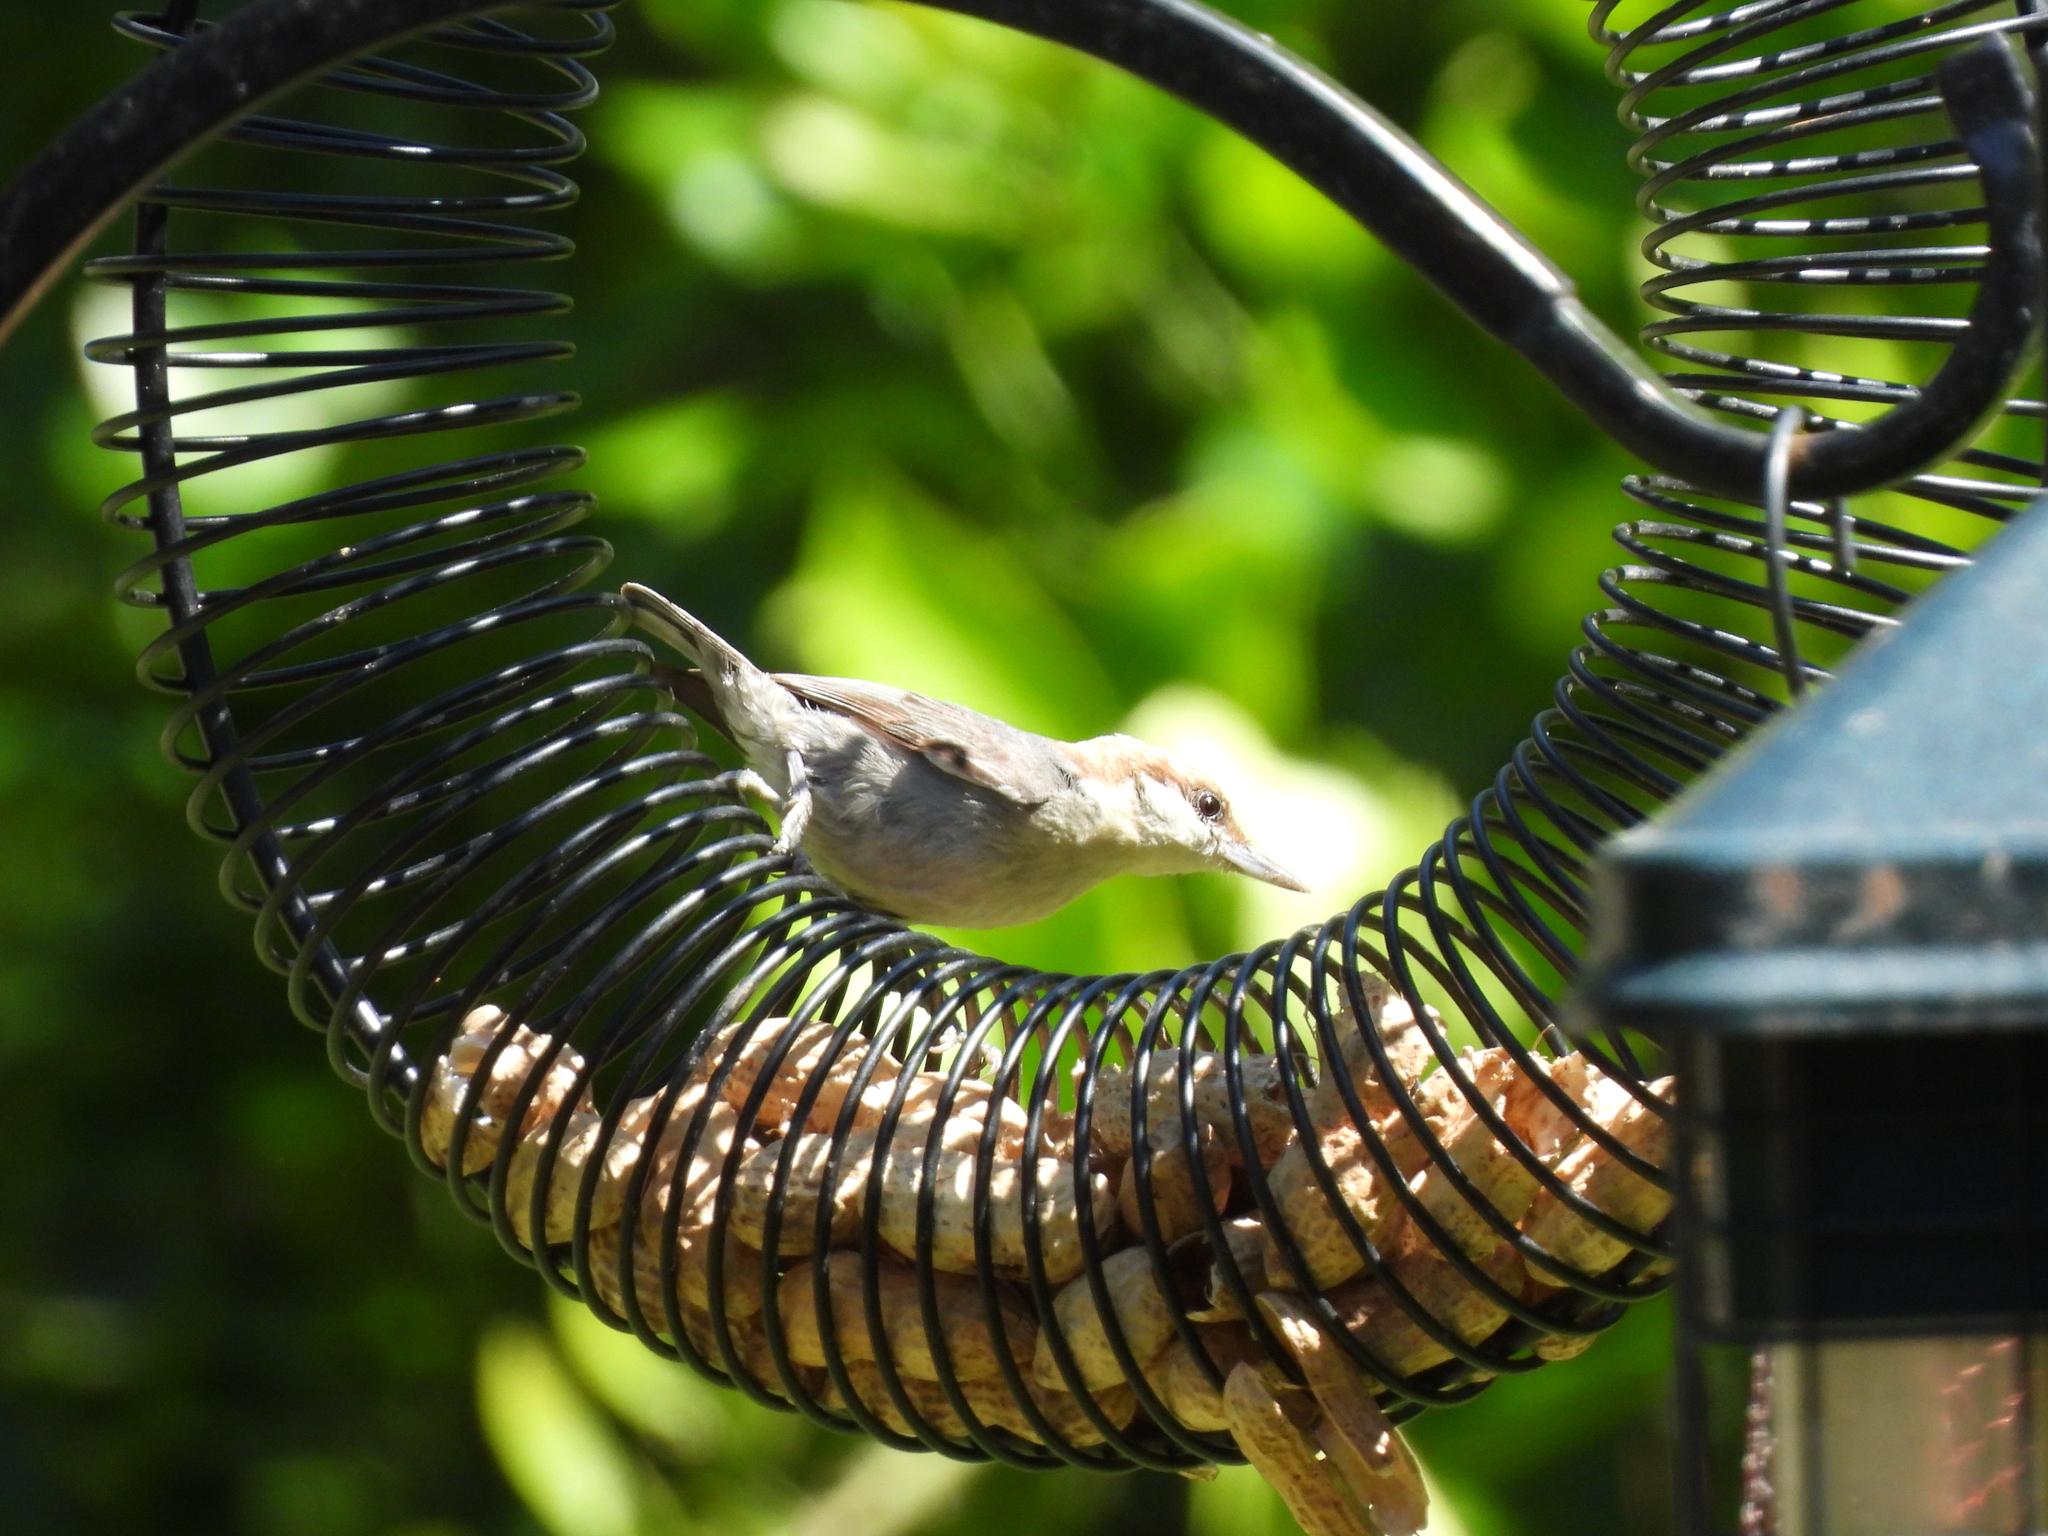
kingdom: Animalia
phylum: Chordata
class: Aves
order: Passeriformes
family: Sittidae
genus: Sitta
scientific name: Sitta pusilla
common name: Brown-headed nuthatch
